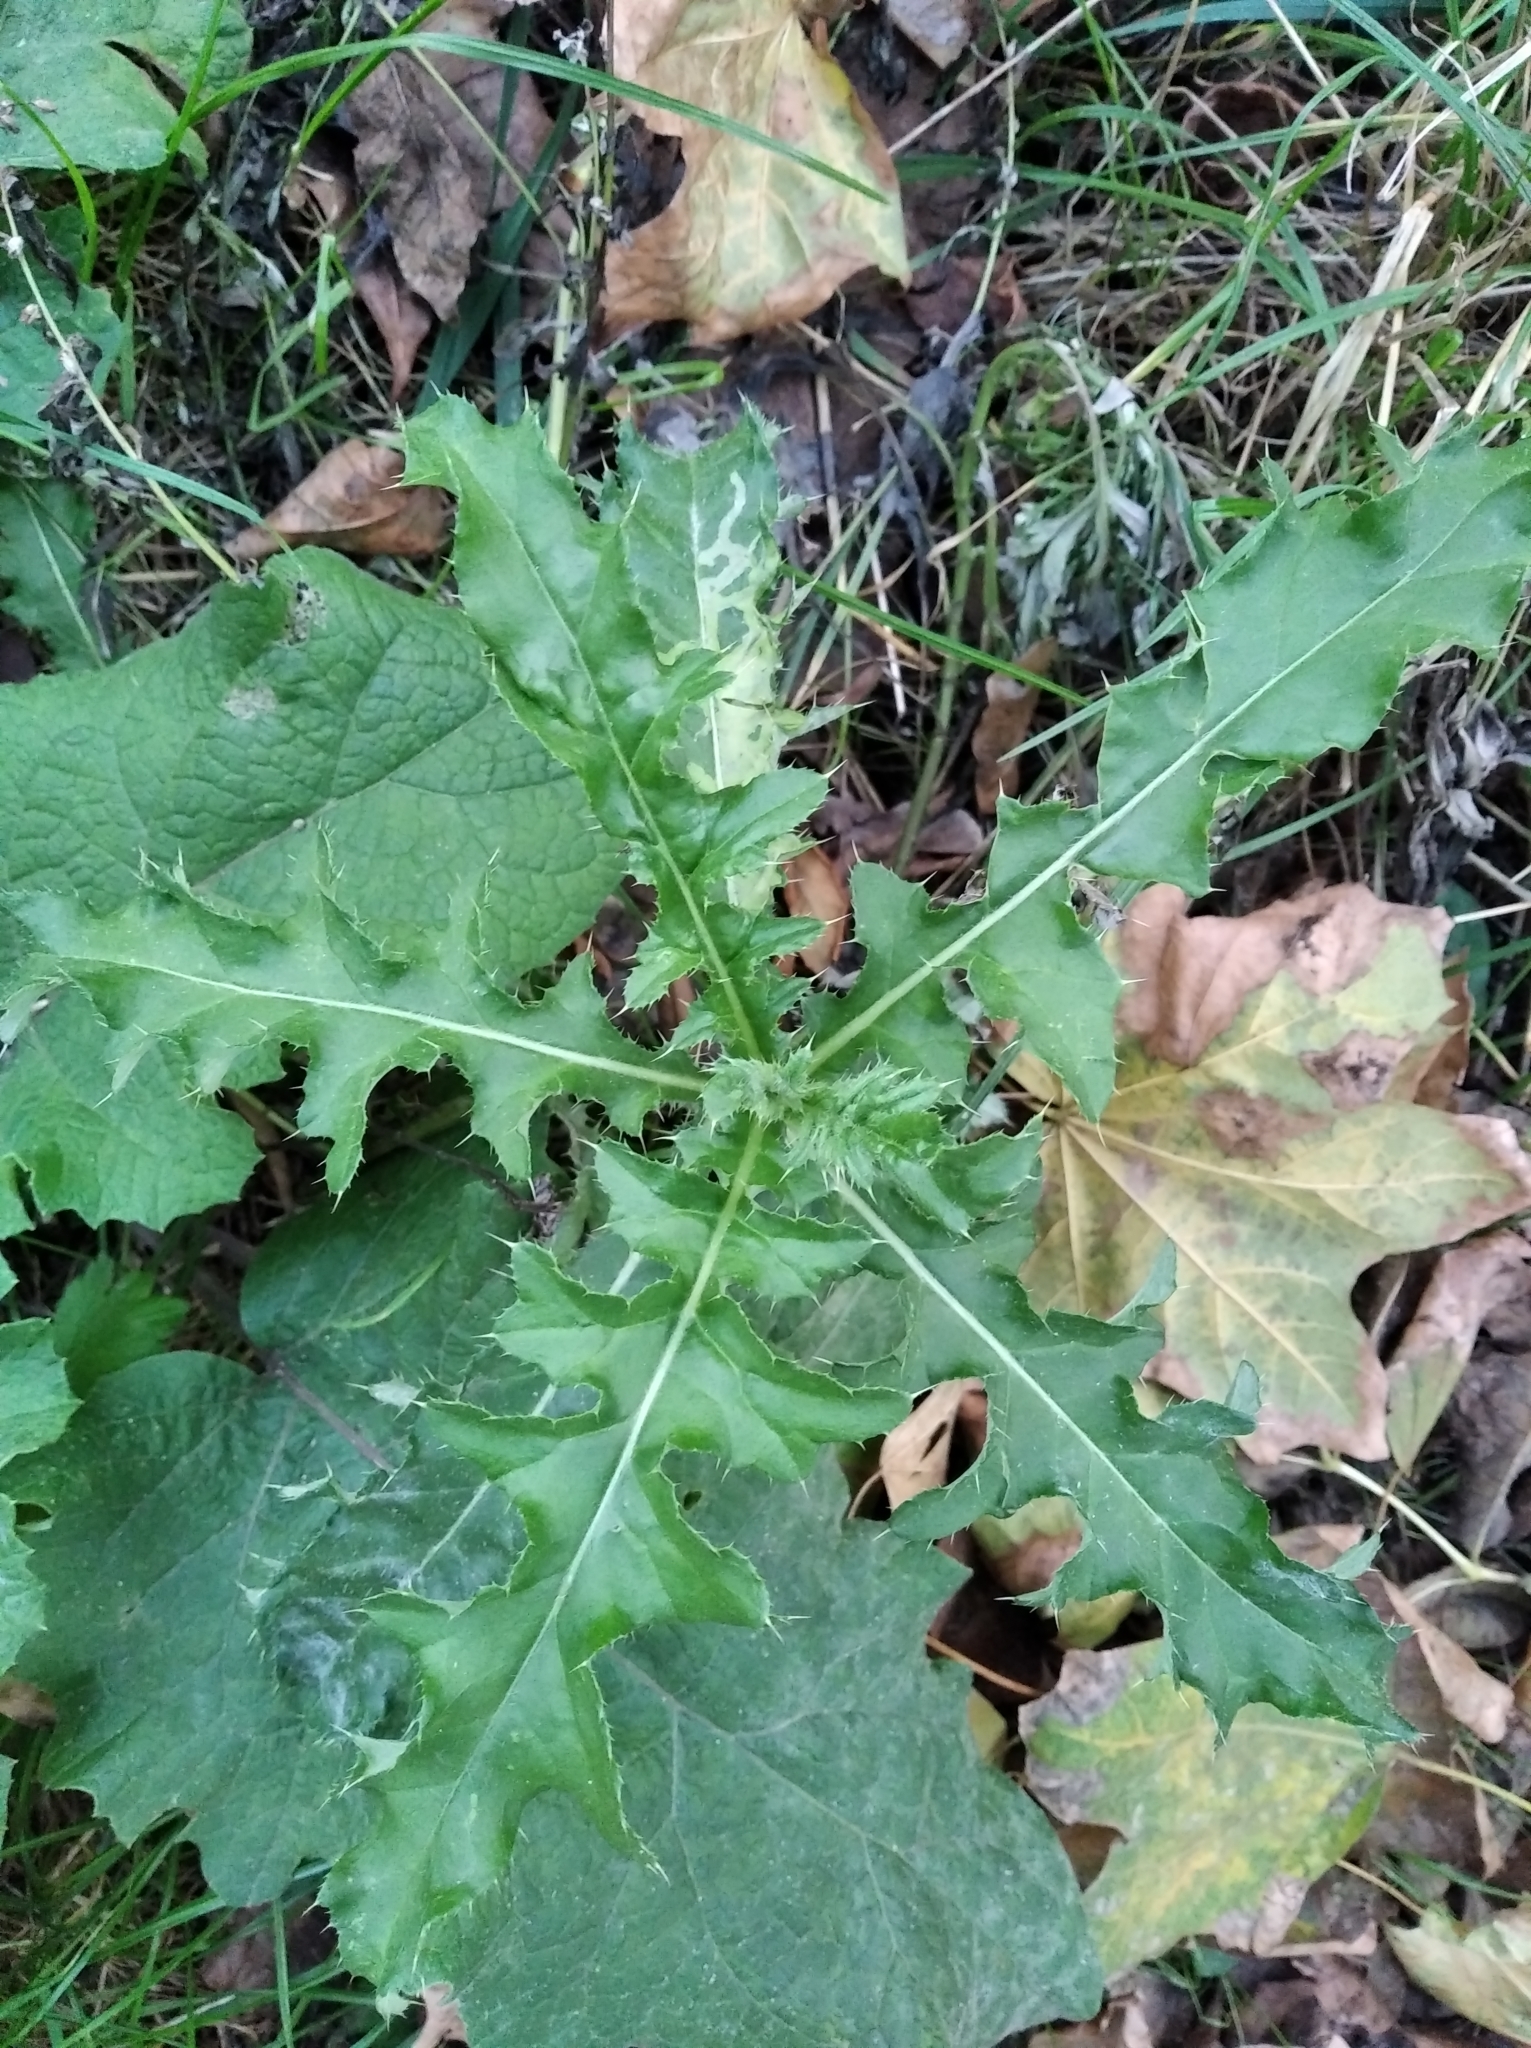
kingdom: Plantae
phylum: Tracheophyta
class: Magnoliopsida
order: Asterales
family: Asteraceae
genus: Cirsium
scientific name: Cirsium arvense
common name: Creeping thistle
